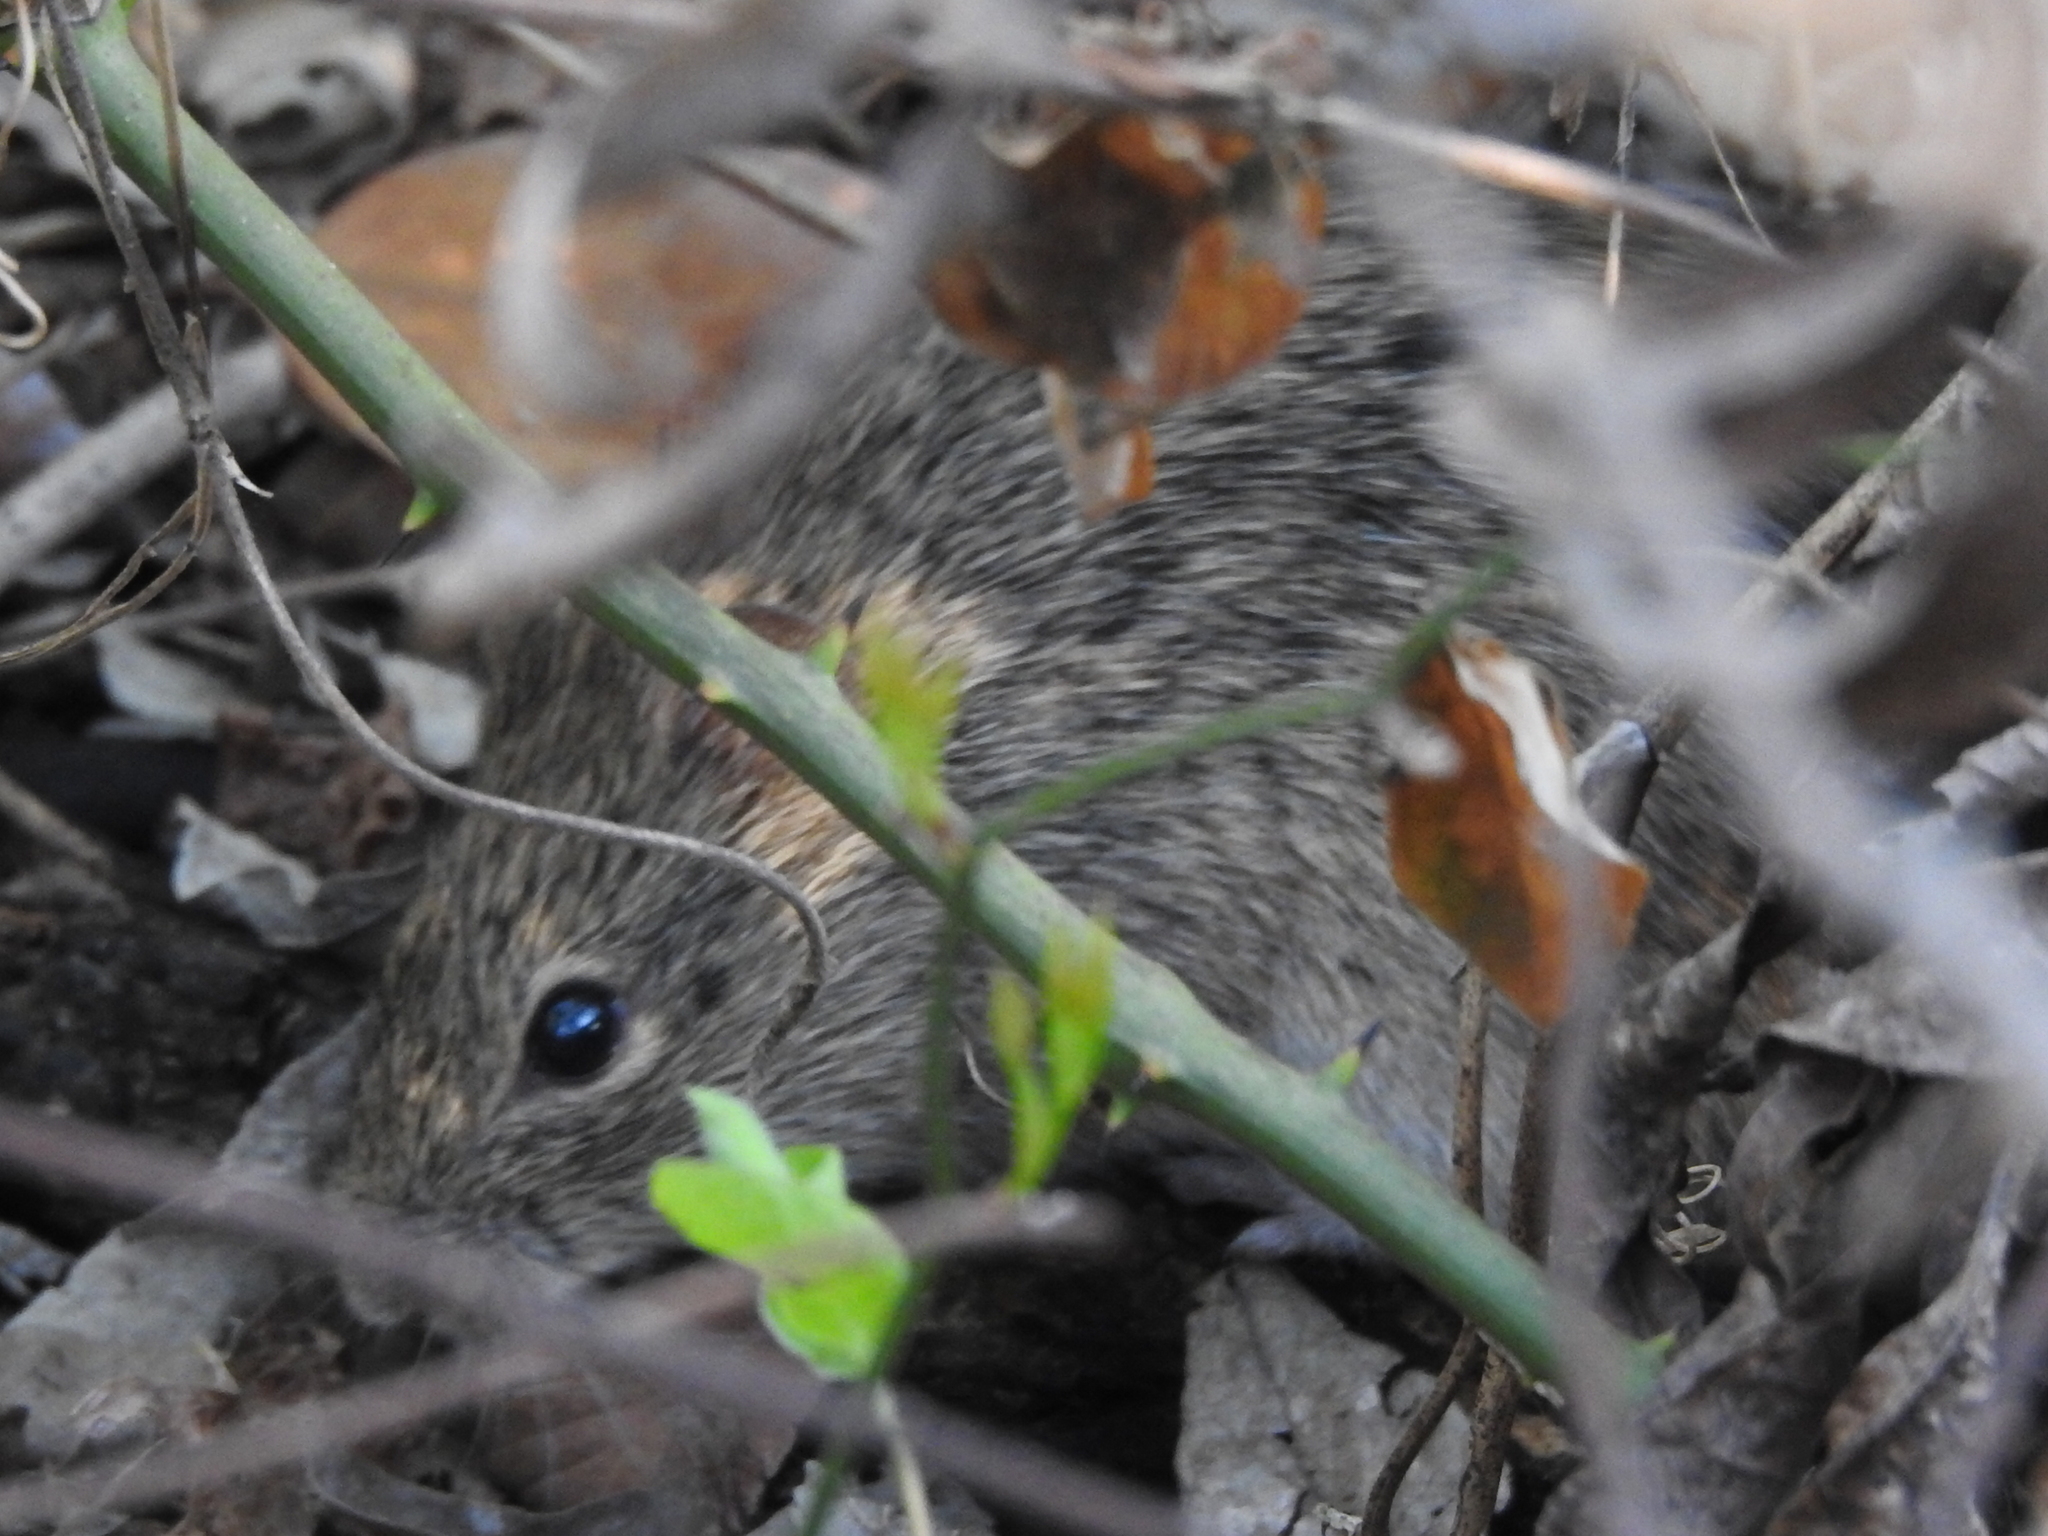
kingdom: Animalia
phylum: Chordata
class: Mammalia
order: Rodentia
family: Cricetidae
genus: Sigmodon
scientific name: Sigmodon hispidus
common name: Hispid cotton rat
